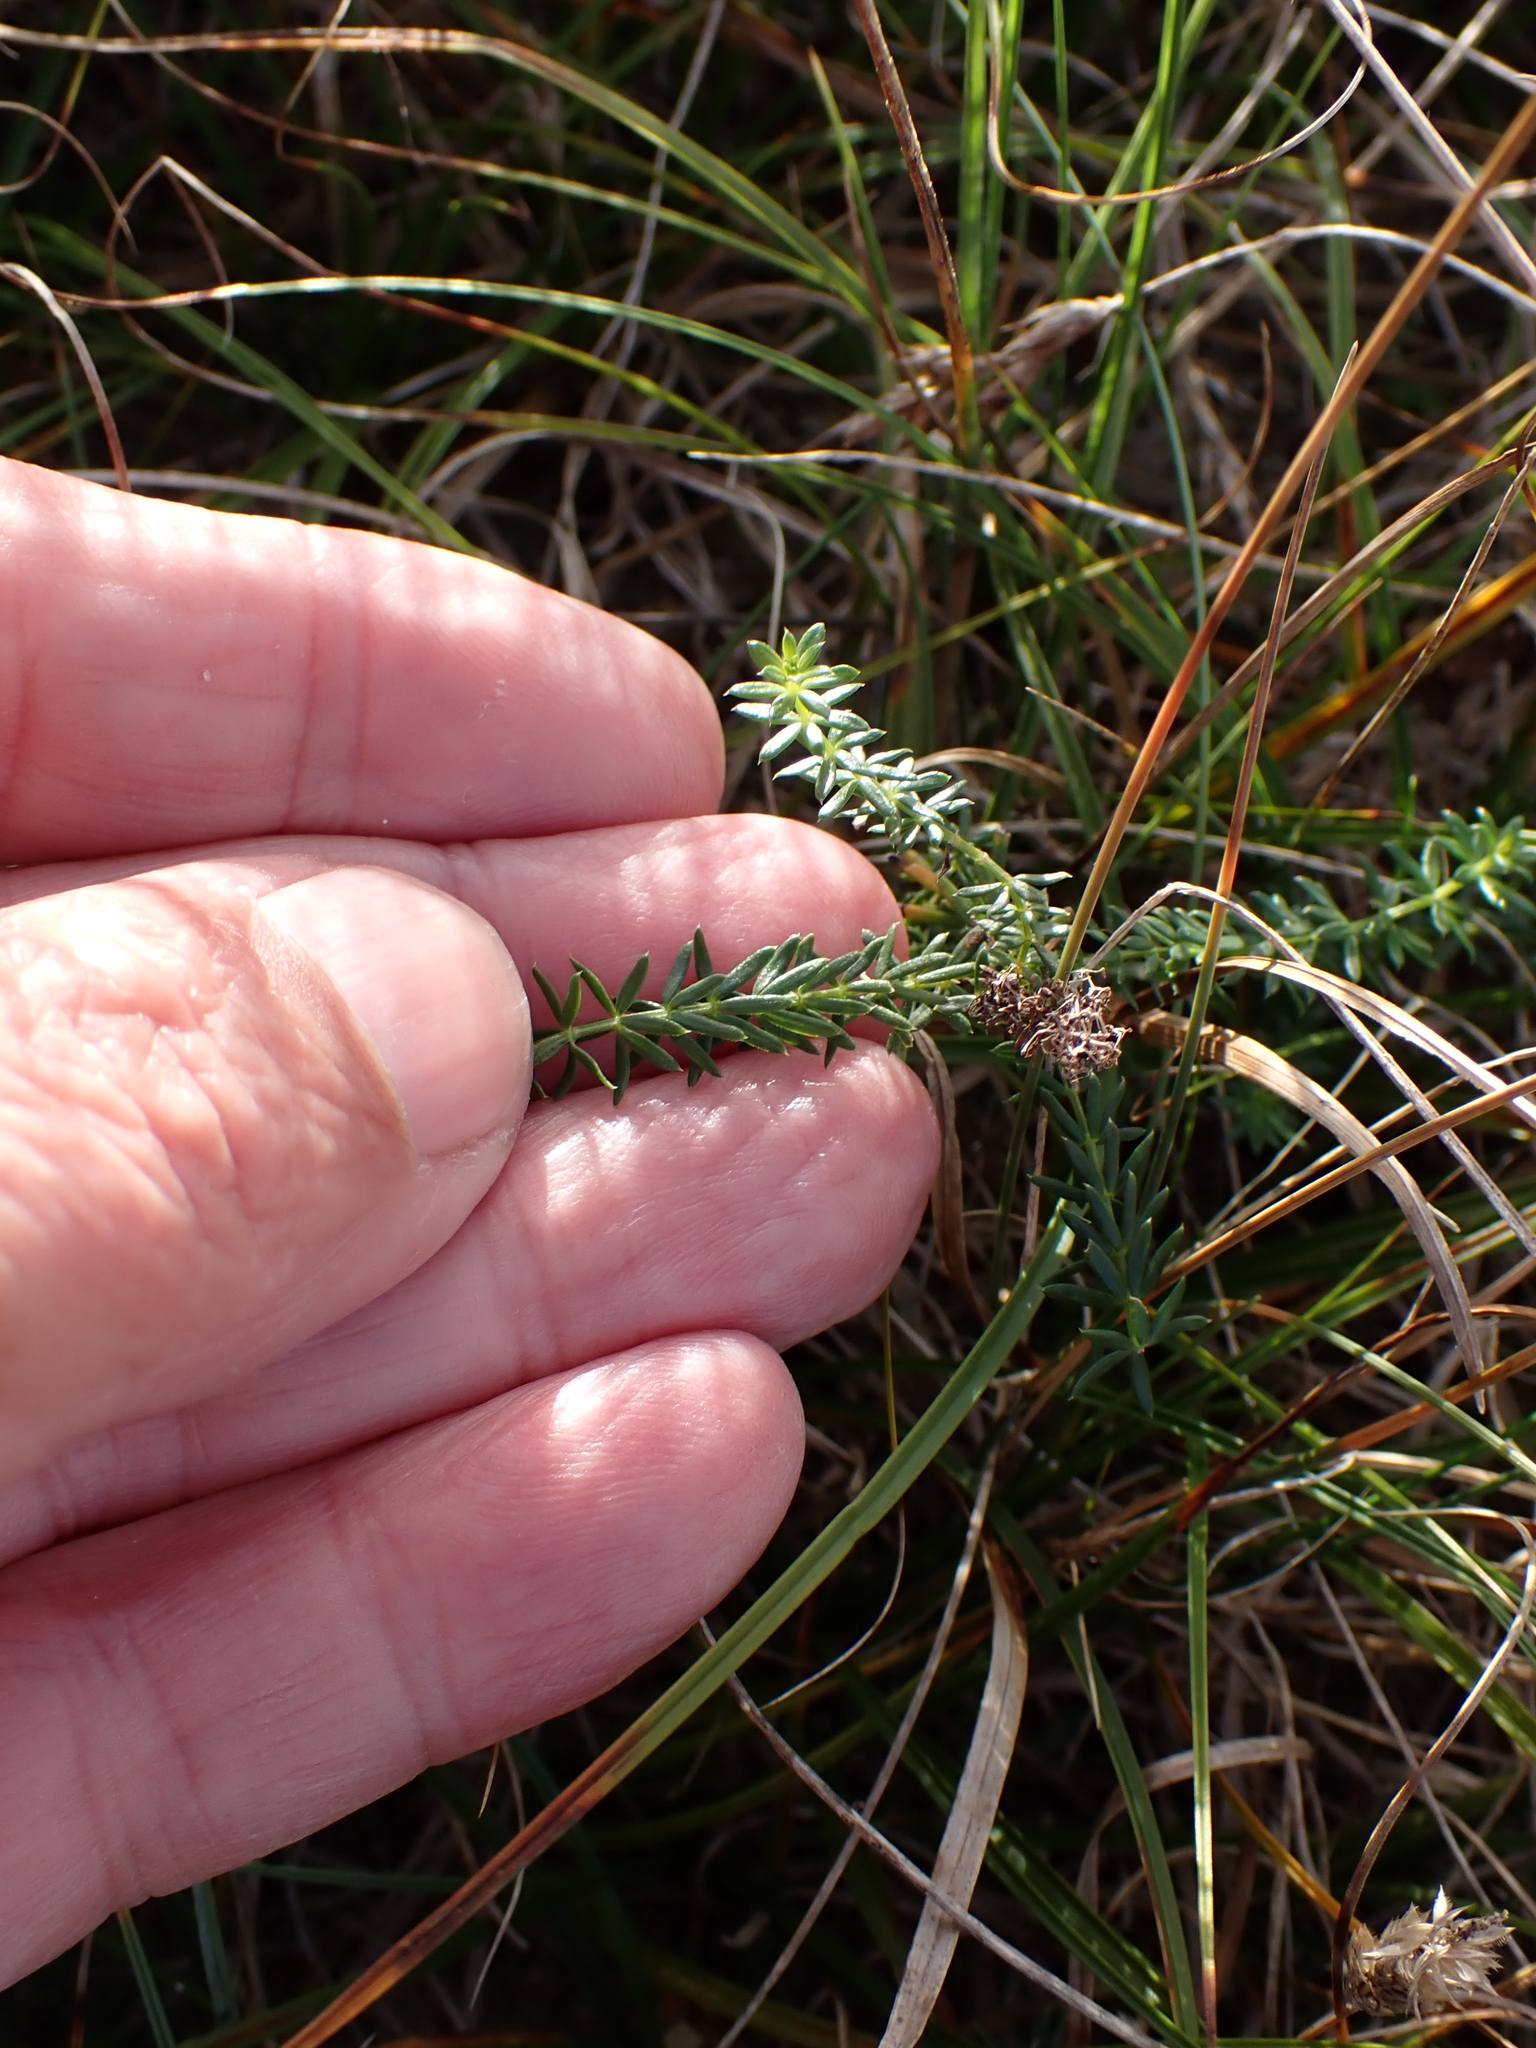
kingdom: Plantae
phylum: Tracheophyta
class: Magnoliopsida
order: Gentianales
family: Rubiaceae
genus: Galium
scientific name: Galium arenarium
